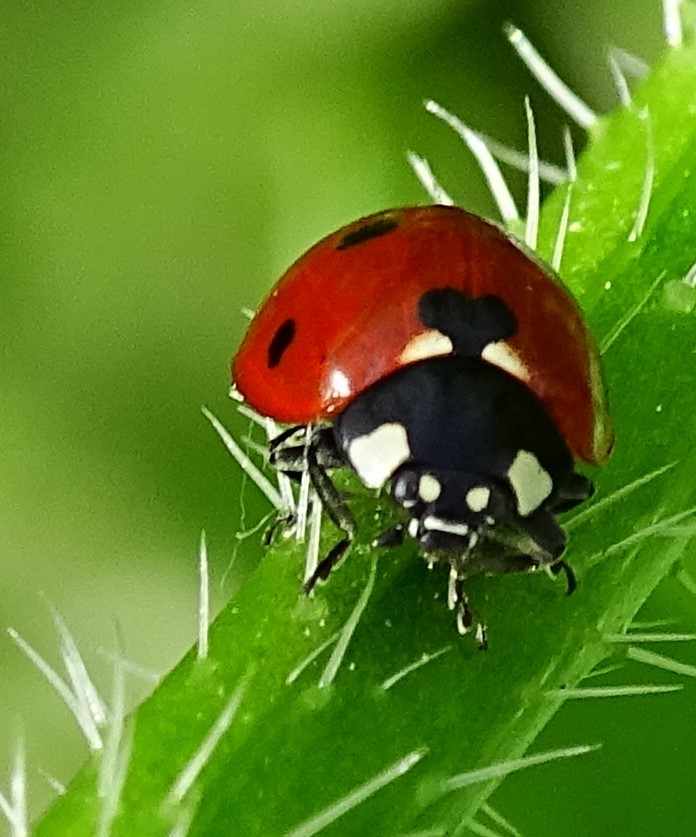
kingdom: Animalia
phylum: Arthropoda
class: Insecta
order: Coleoptera
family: Coccinellidae
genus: Coccinella
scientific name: Coccinella septempunctata
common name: Sevenspotted lady beetle
